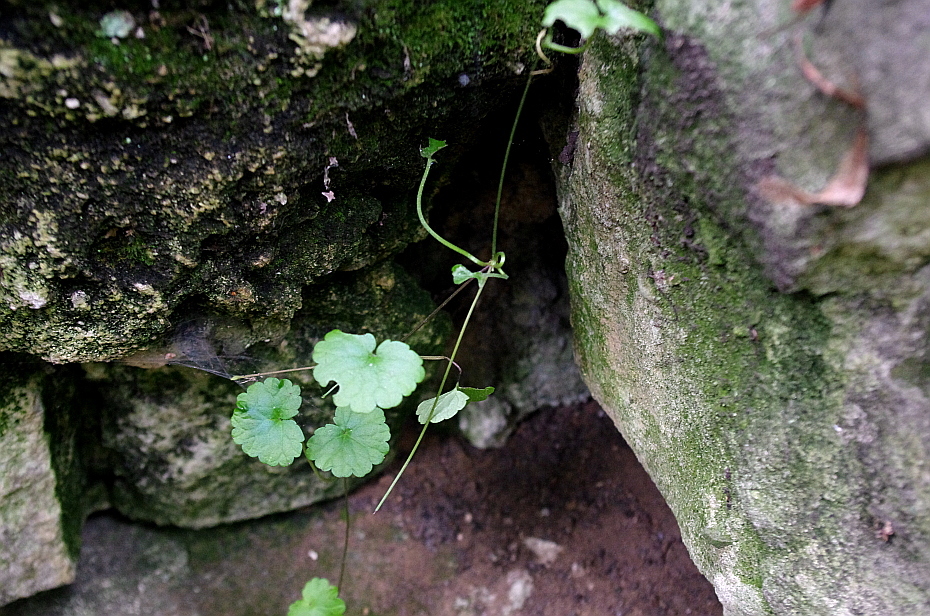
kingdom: Plantae
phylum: Tracheophyta
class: Magnoliopsida
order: Lamiales
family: Lamiaceae
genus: Glechoma
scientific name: Glechoma hederacea
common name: Ground ivy
